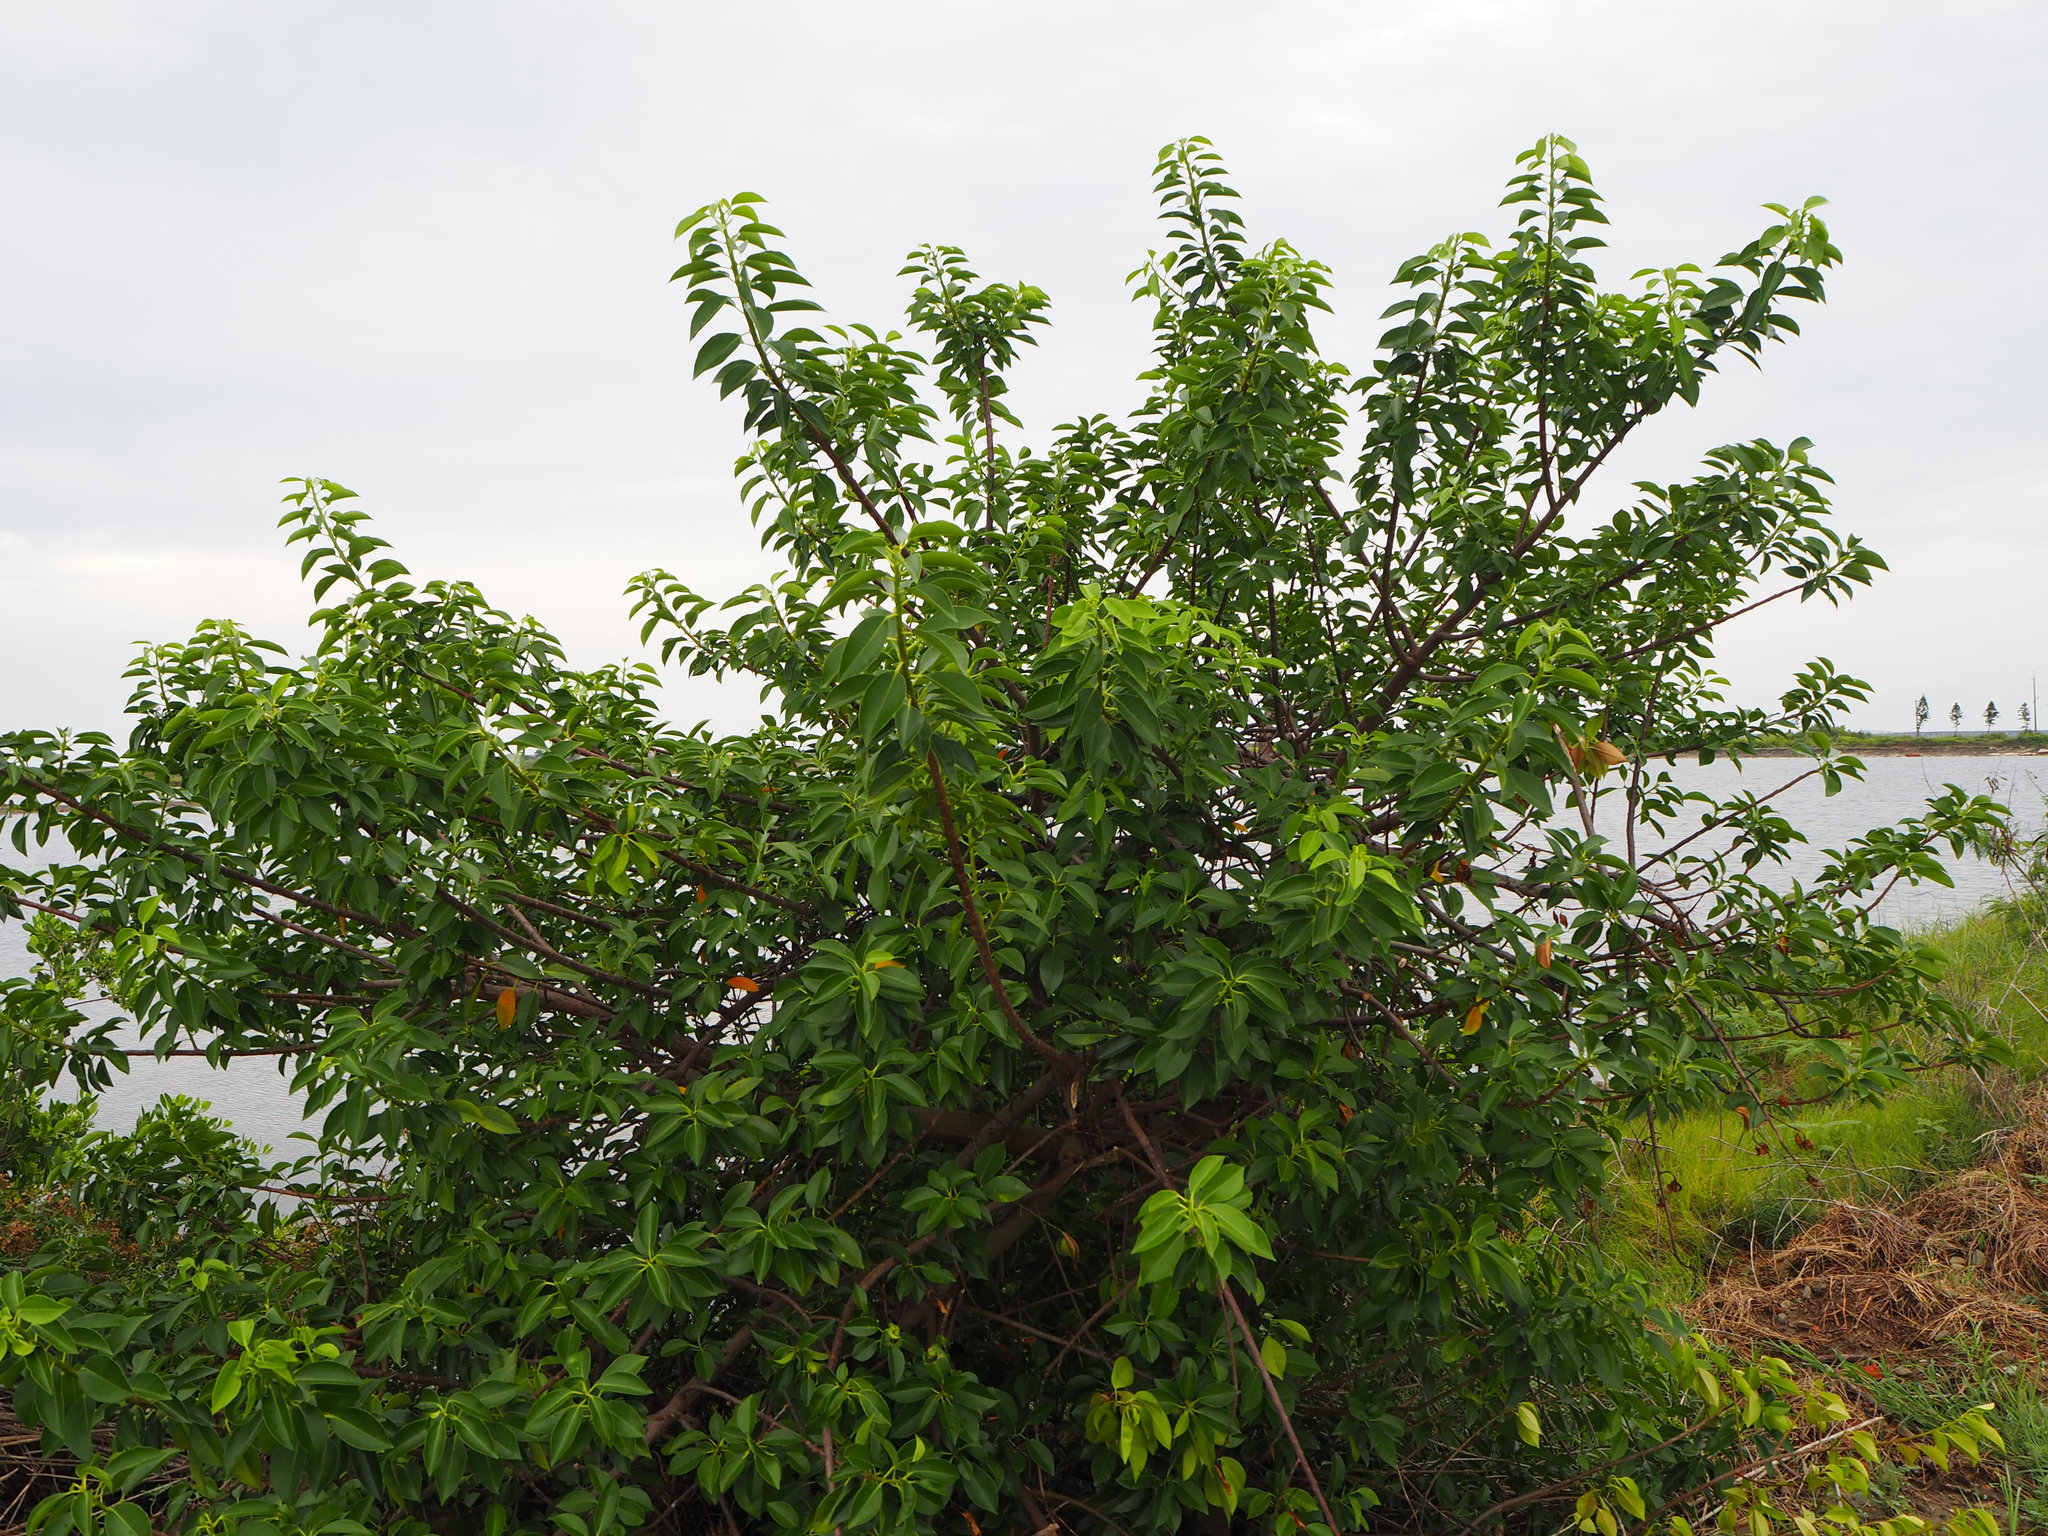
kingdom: Plantae
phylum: Tracheophyta
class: Magnoliopsida
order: Malpighiales
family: Euphorbiaceae
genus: Excoecaria
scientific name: Excoecaria agallocha
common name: River poisontree
